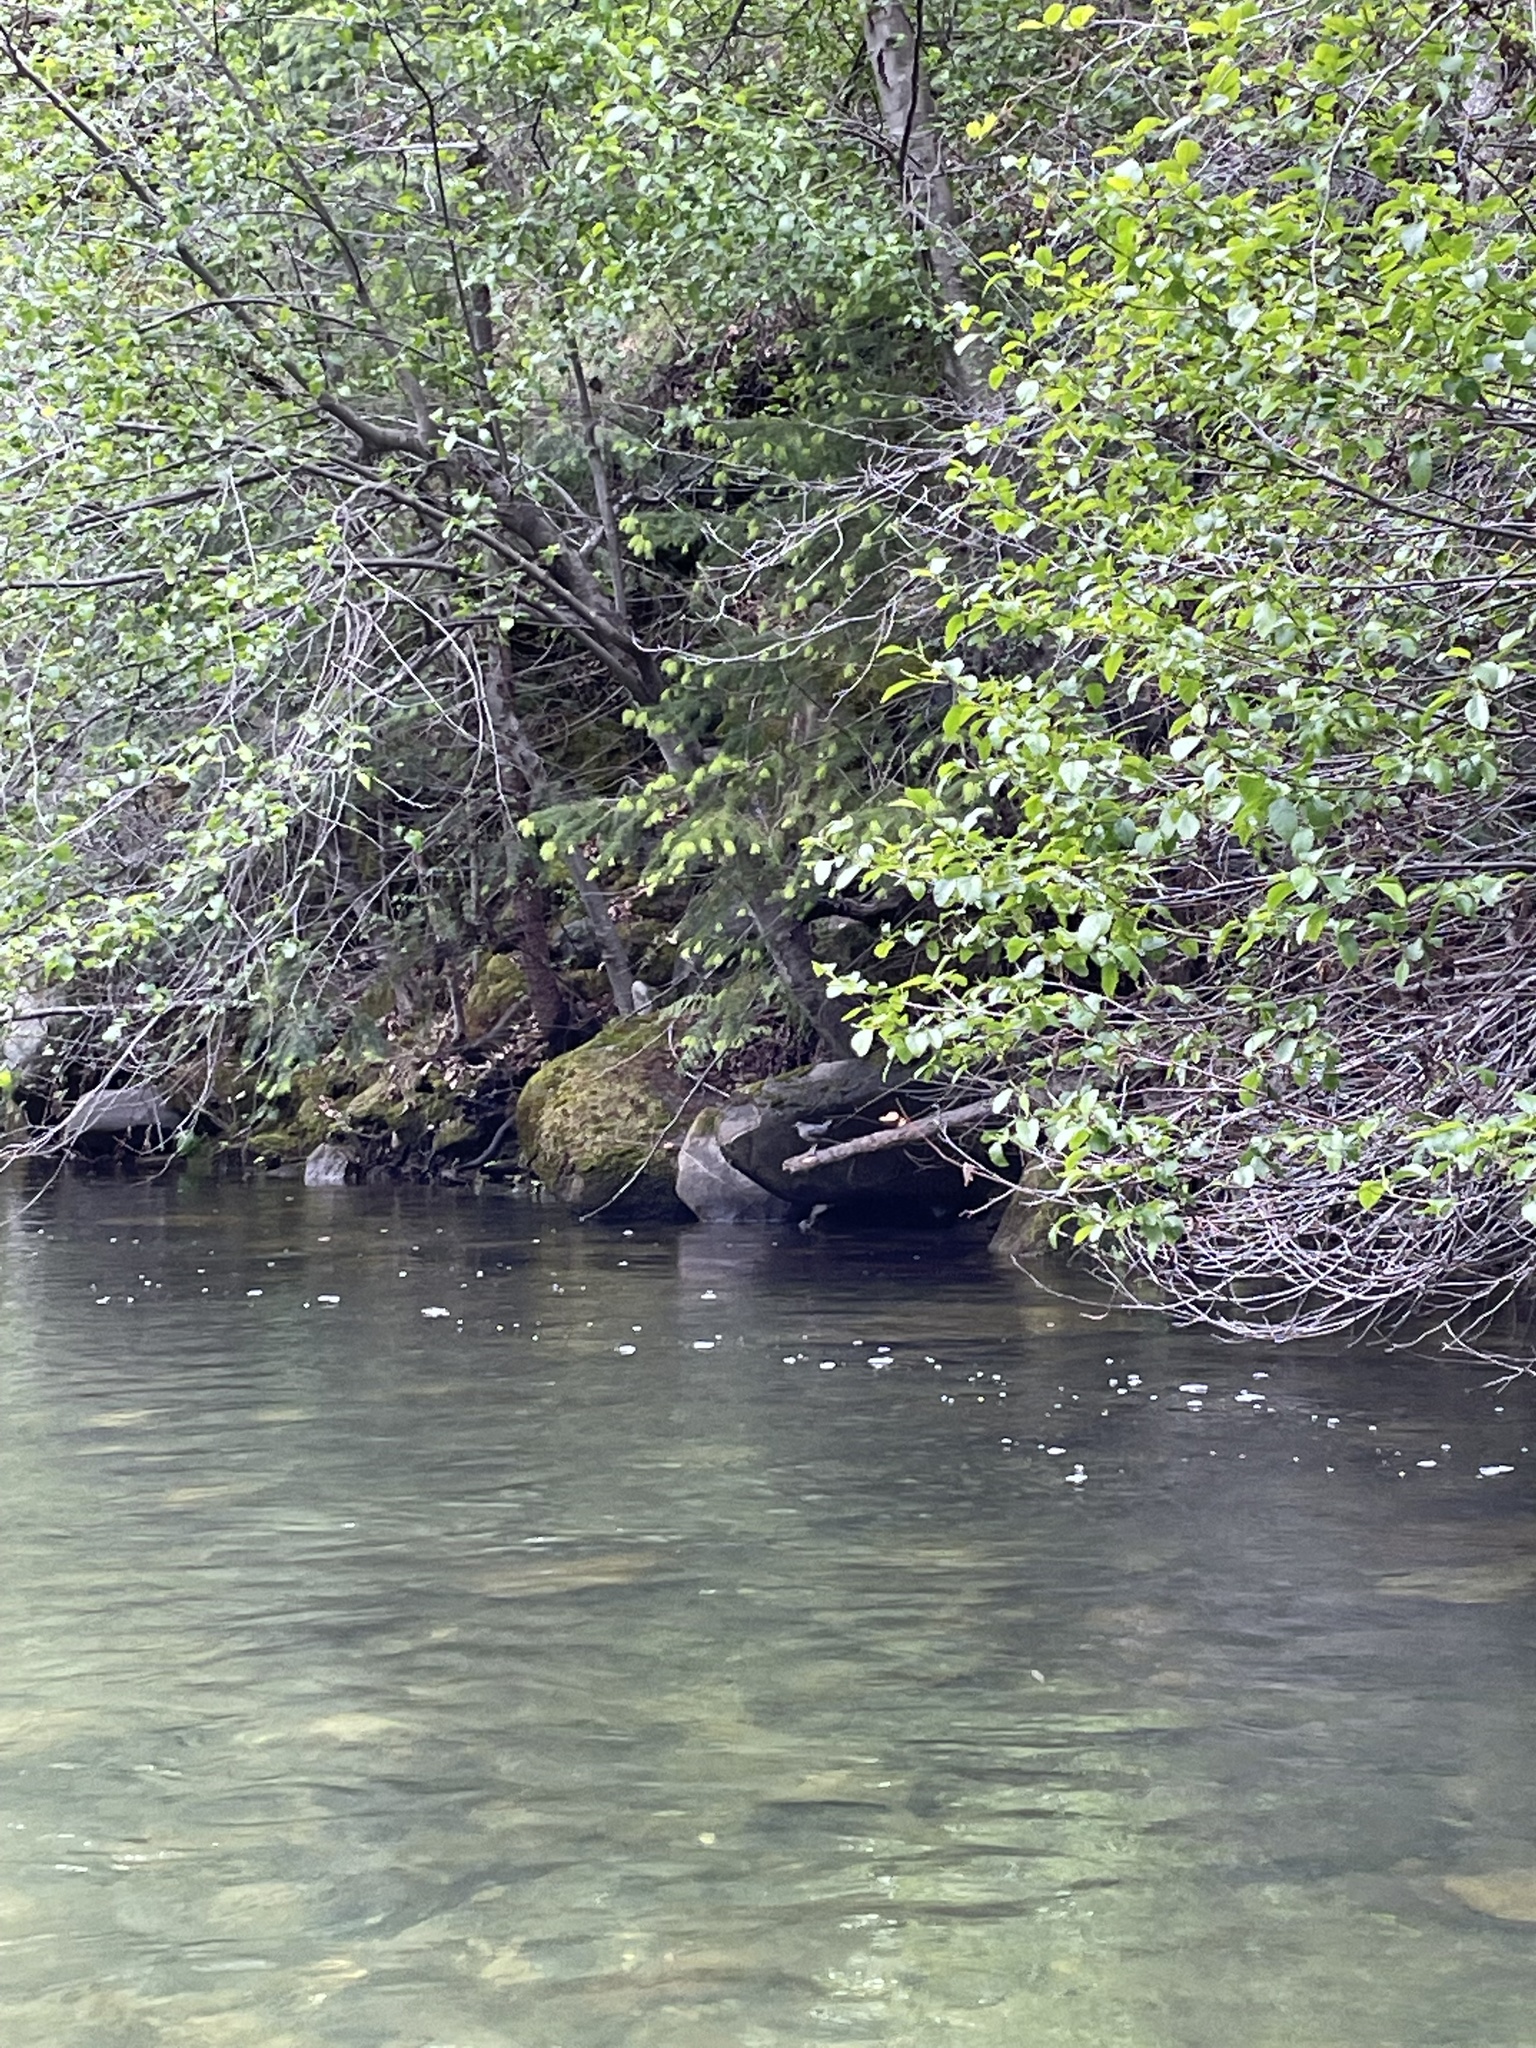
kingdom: Animalia
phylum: Chordata
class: Aves
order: Passeriformes
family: Cinclidae
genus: Cinclus
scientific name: Cinclus mexicanus
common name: American dipper
